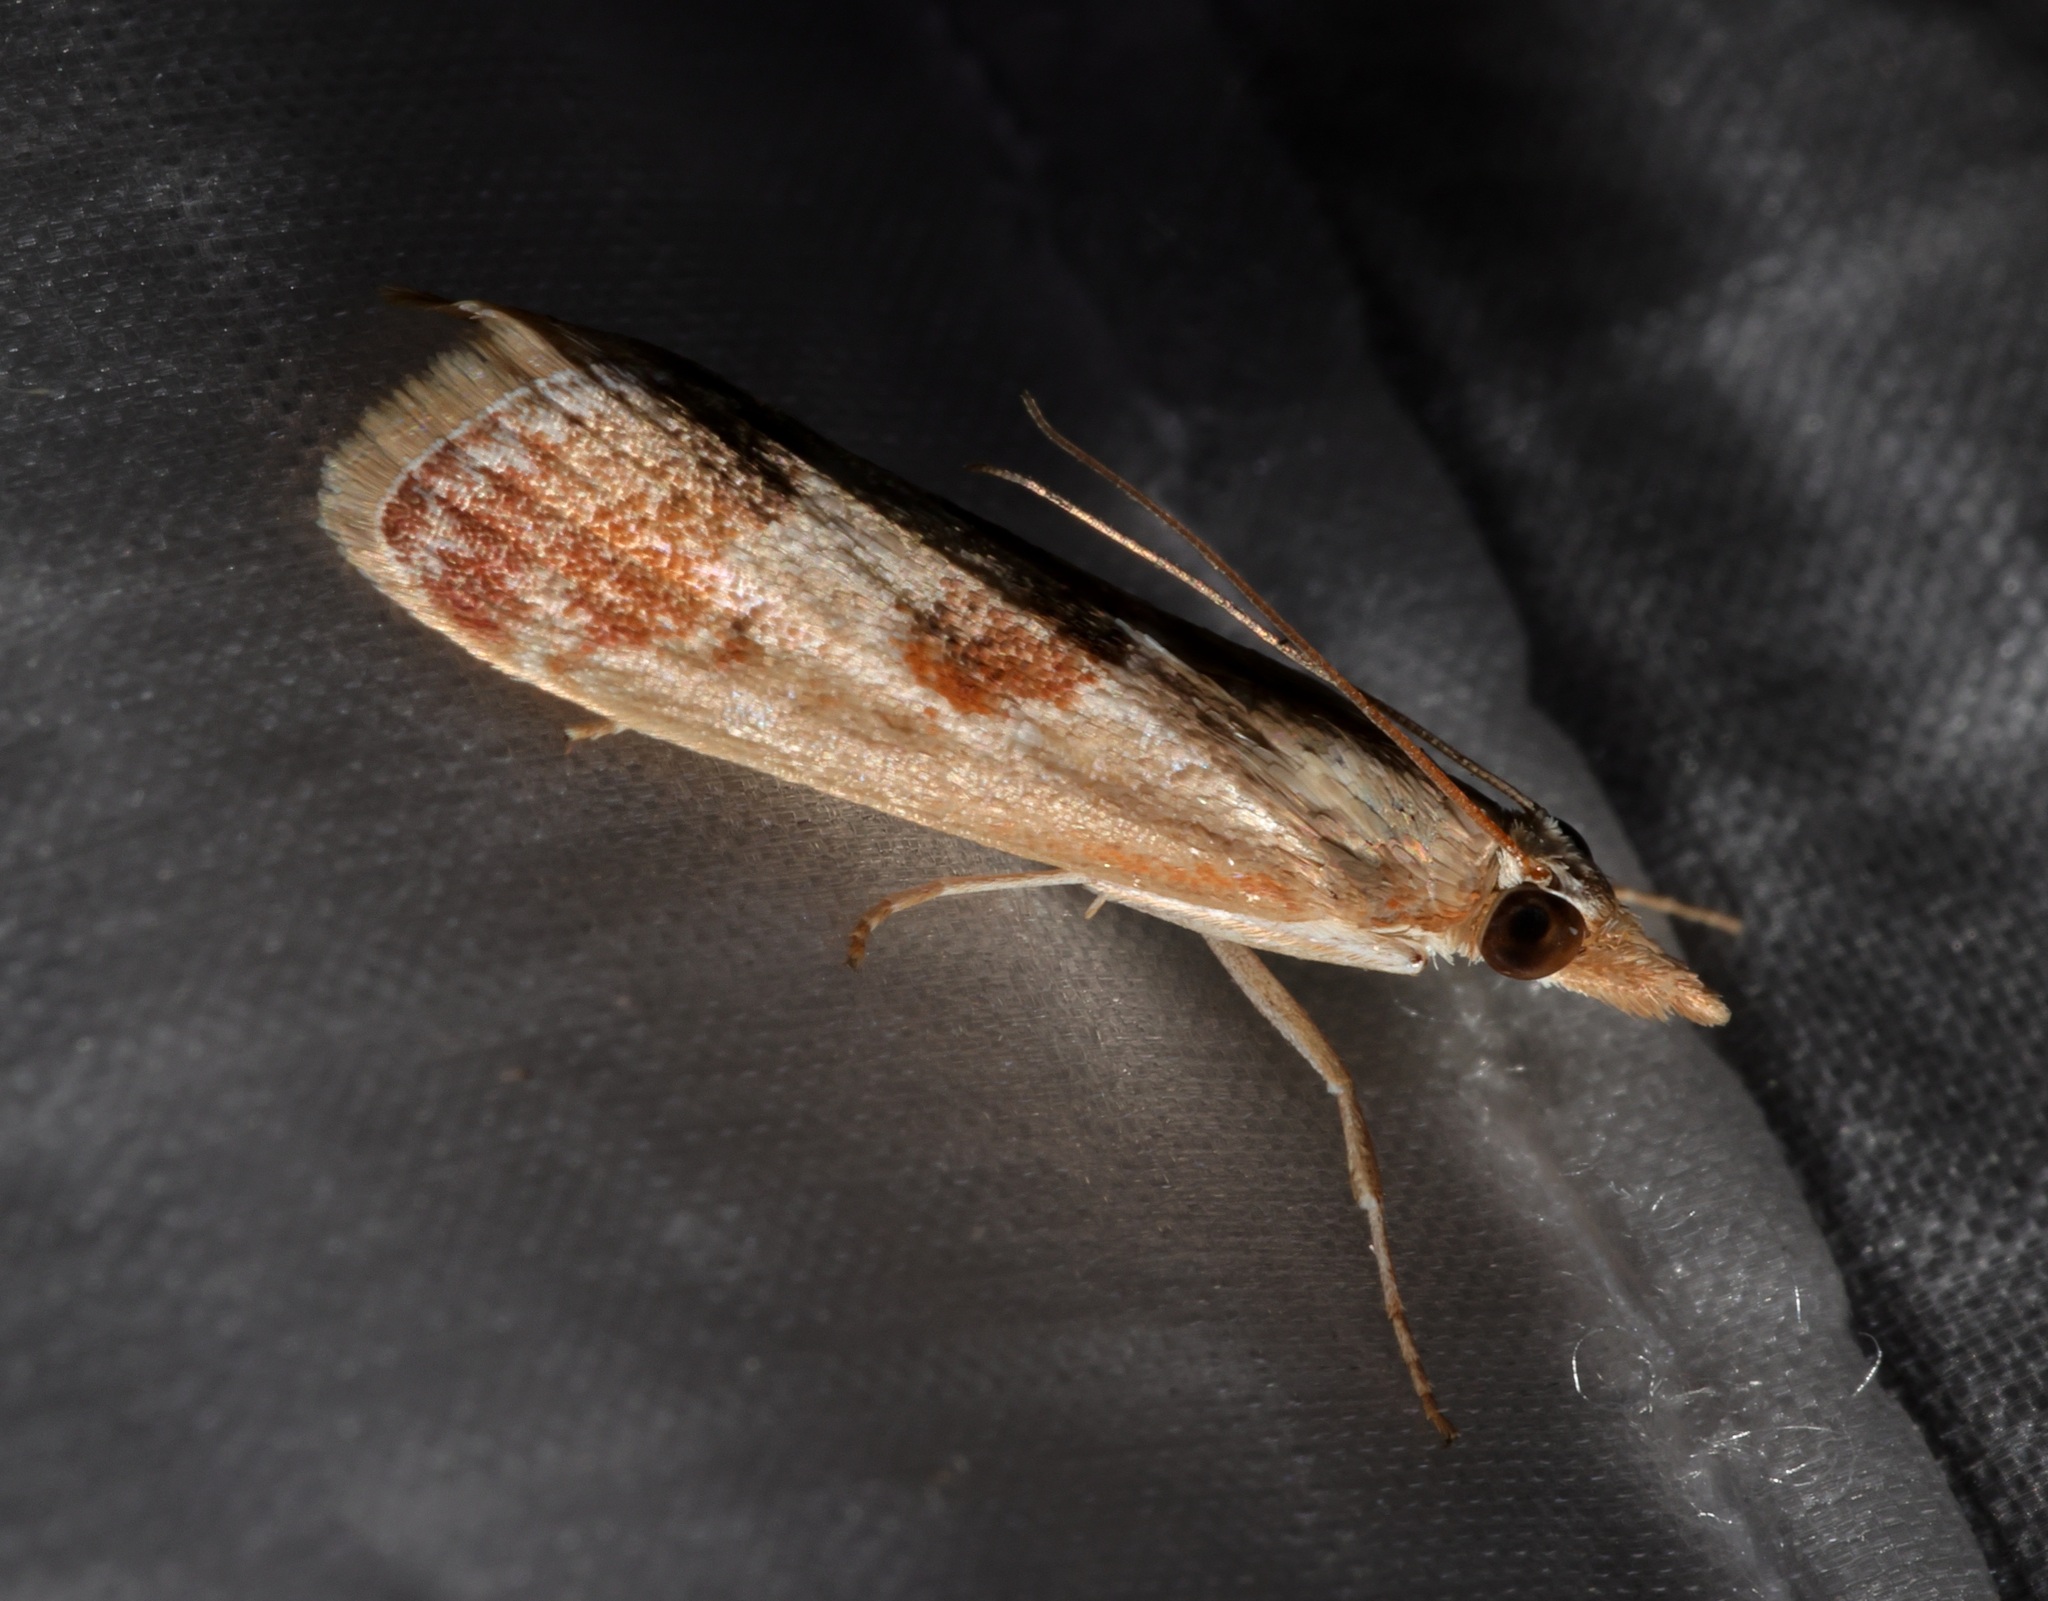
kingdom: Animalia
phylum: Arthropoda
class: Insecta
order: Lepidoptera
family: Crambidae
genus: Syntonarcha
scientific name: Syntonarcha iriastis
